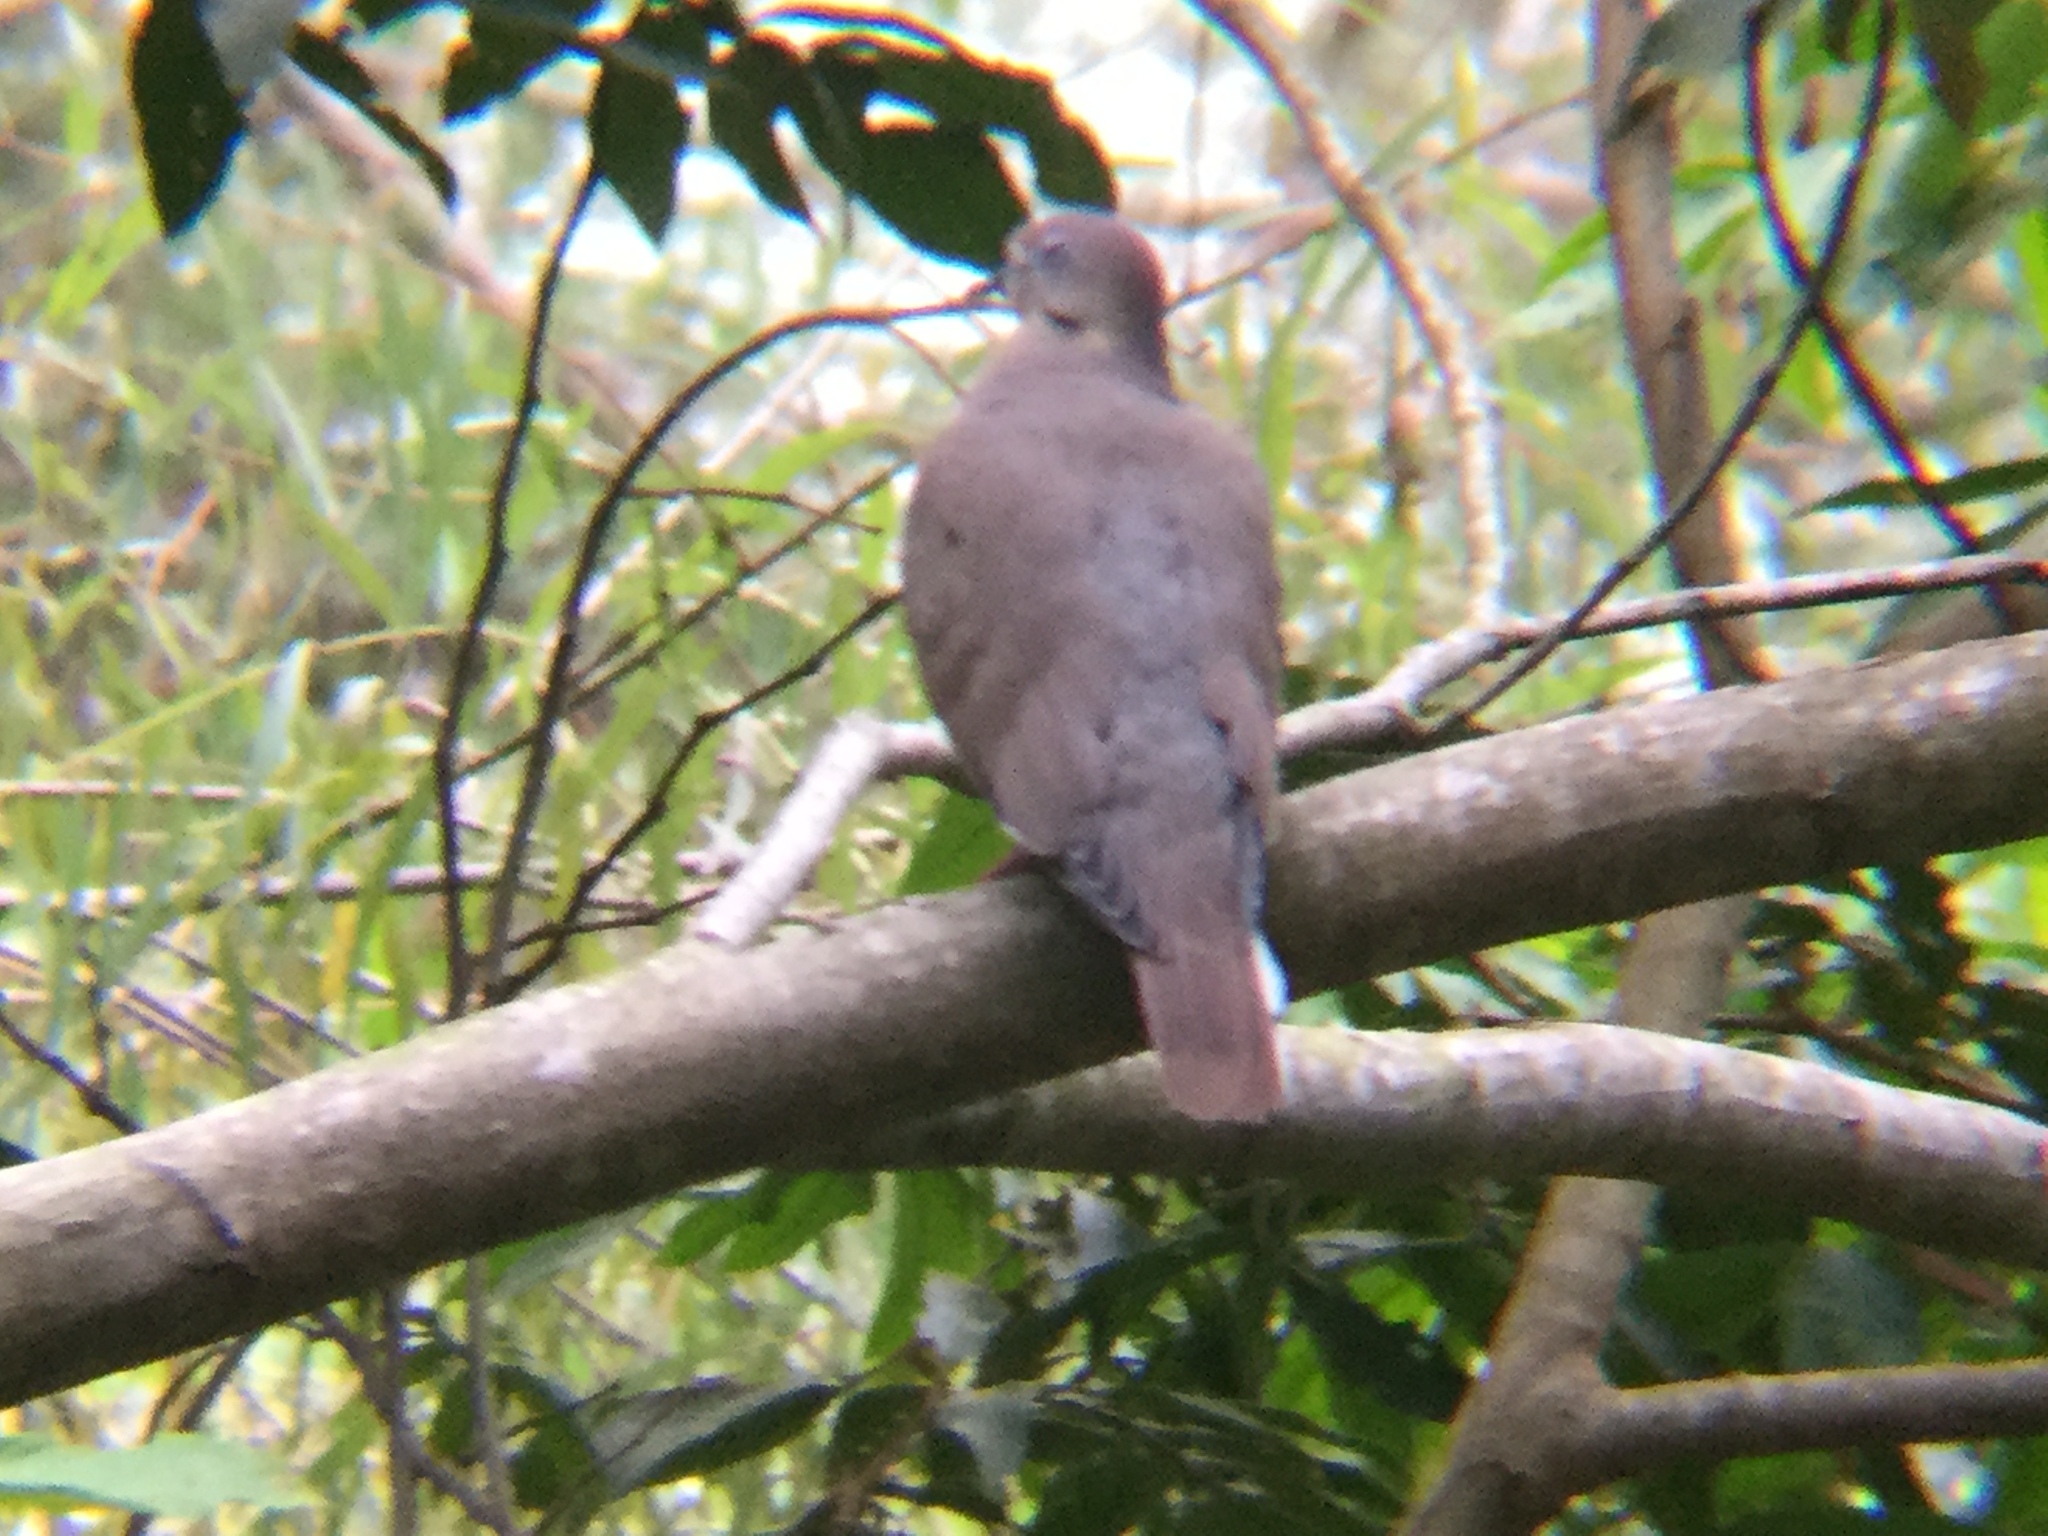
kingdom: Animalia
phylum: Chordata
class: Aves
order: Columbiformes
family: Columbidae
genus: Zenaida
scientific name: Zenaida asiatica
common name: White-winged dove
